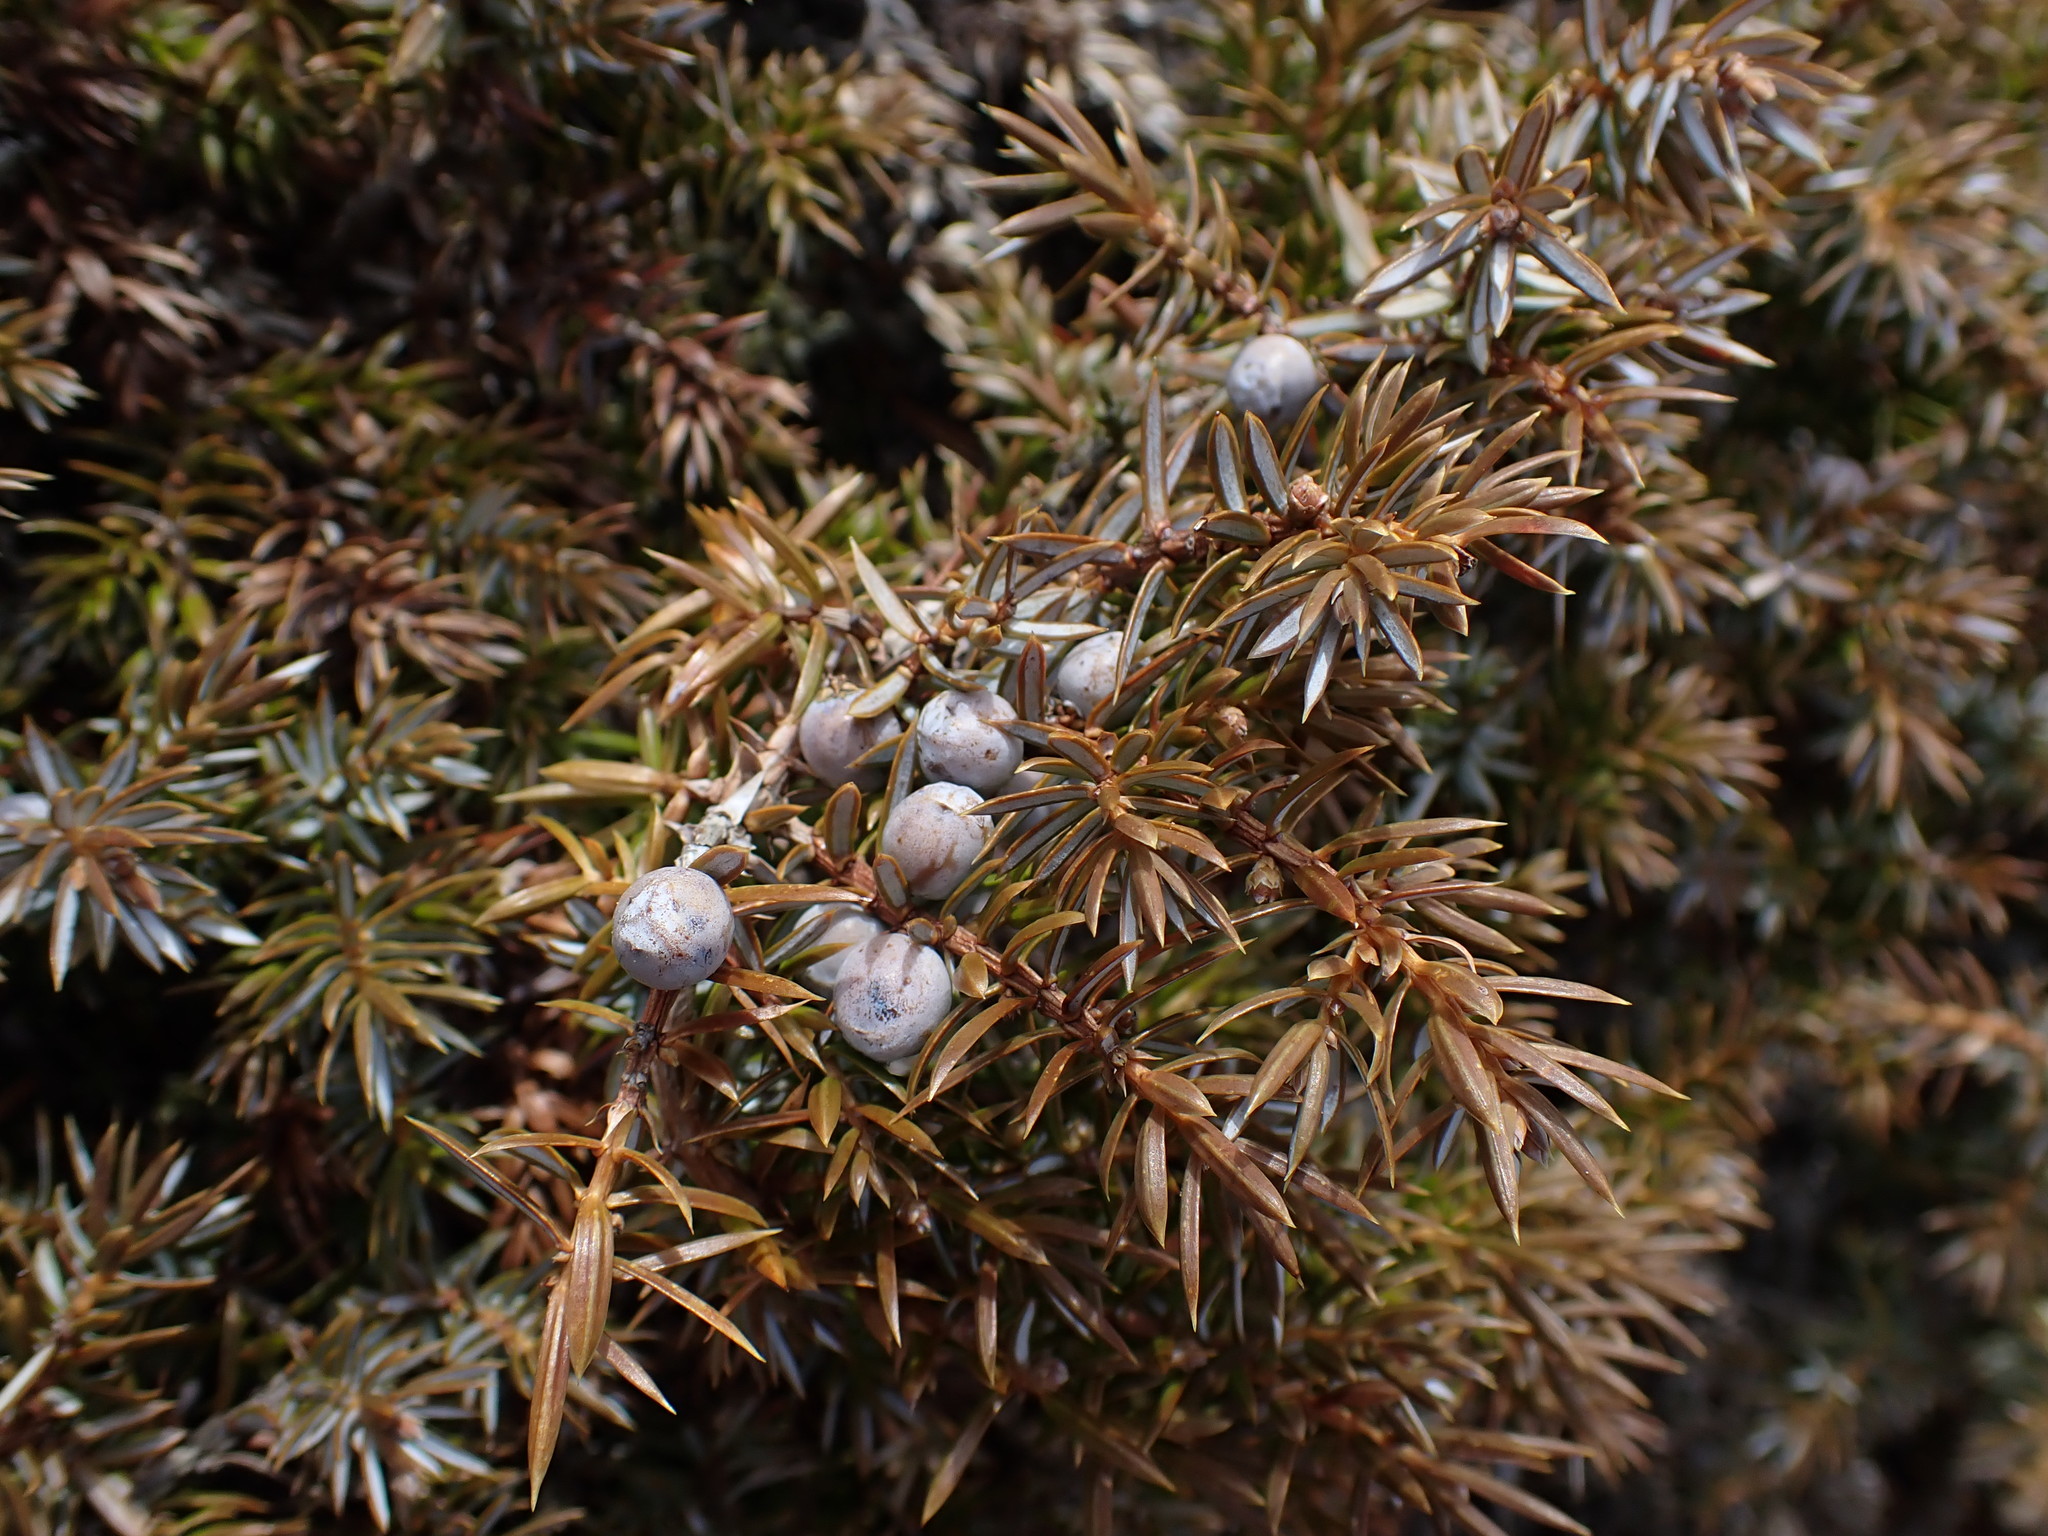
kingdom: Plantae
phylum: Tracheophyta
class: Pinopsida
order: Pinales
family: Cupressaceae
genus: Juniperus
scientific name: Juniperus communis
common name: Common juniper
